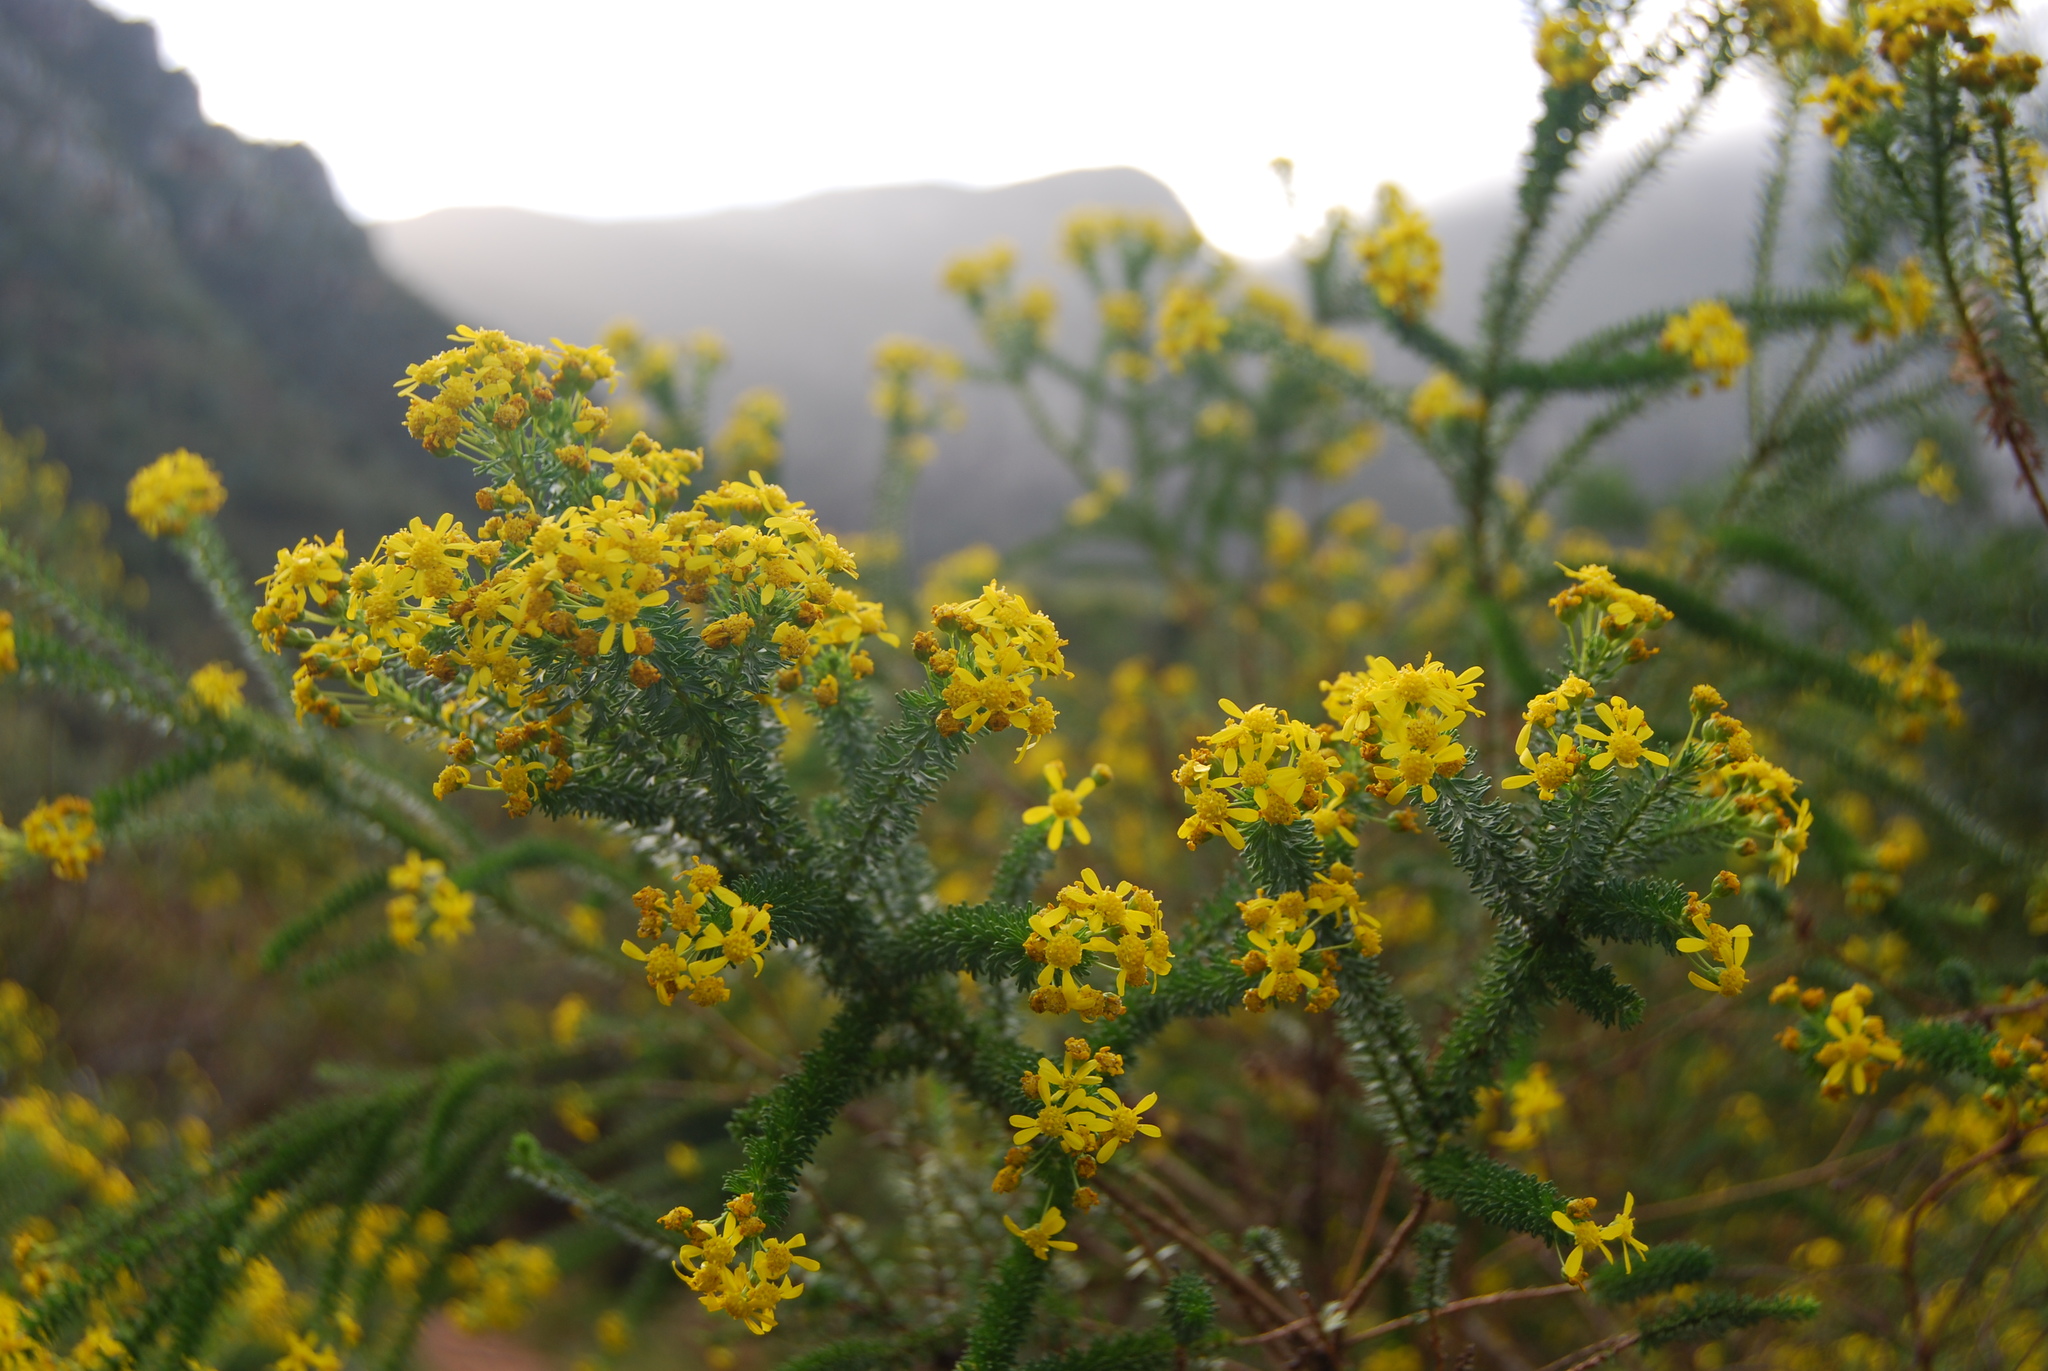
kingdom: Plantae
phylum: Tracheophyta
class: Magnoliopsida
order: Asterales
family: Asteraceae
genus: Euryops
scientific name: Euryops virgineus
